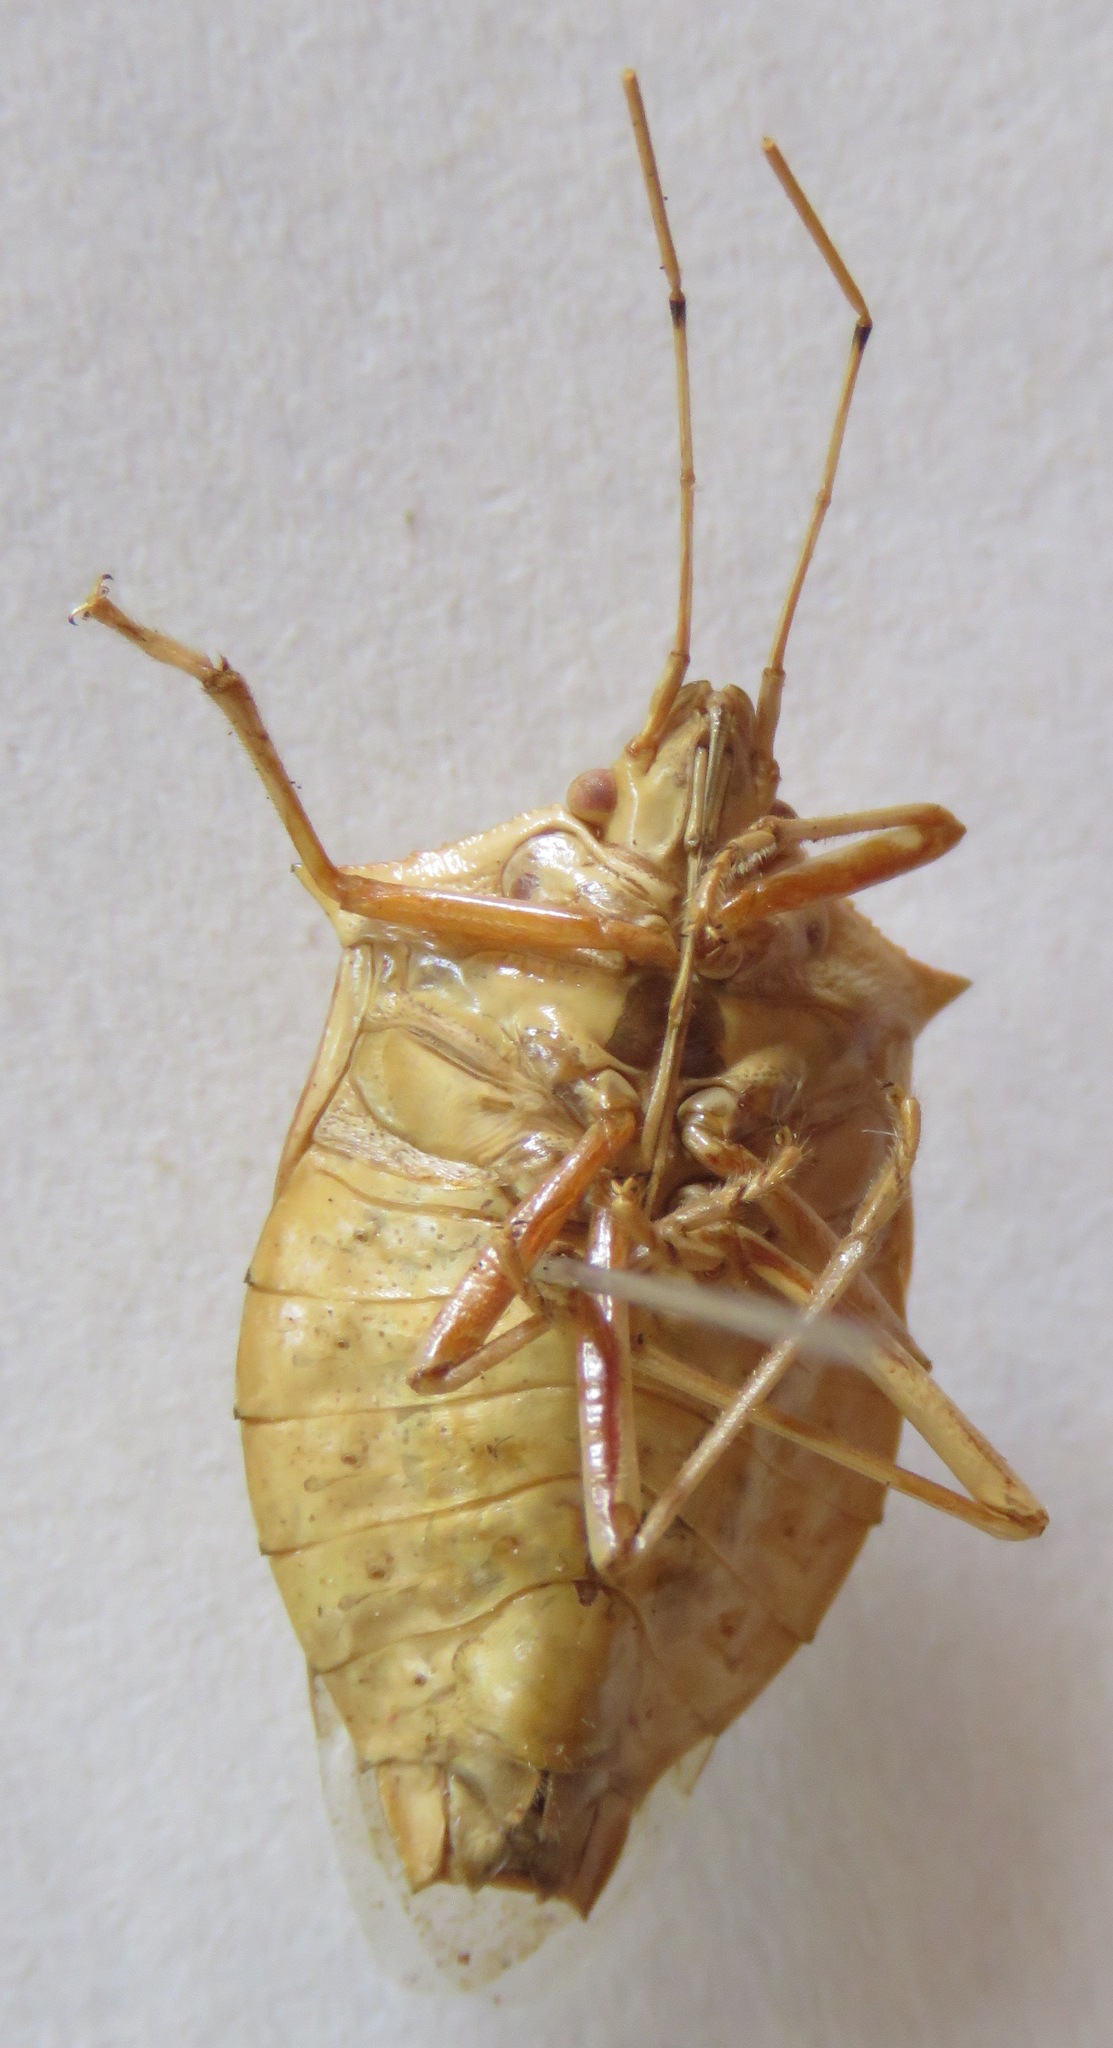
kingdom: Animalia
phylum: Arthropoda
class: Insecta
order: Hemiptera
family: Pentatomidae
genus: Chlorocoris
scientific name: Chlorocoris rufispinus
